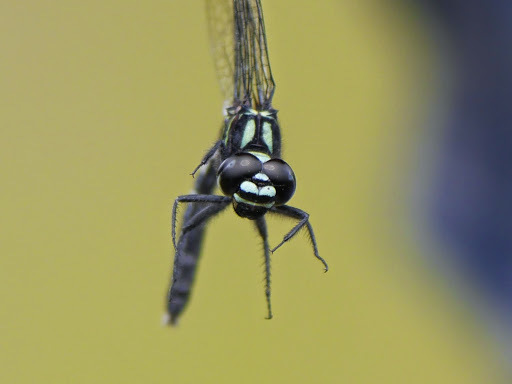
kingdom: Animalia
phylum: Arthropoda
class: Insecta
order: Odonata
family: Libellulidae
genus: Porpax
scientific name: Porpax garambensis
